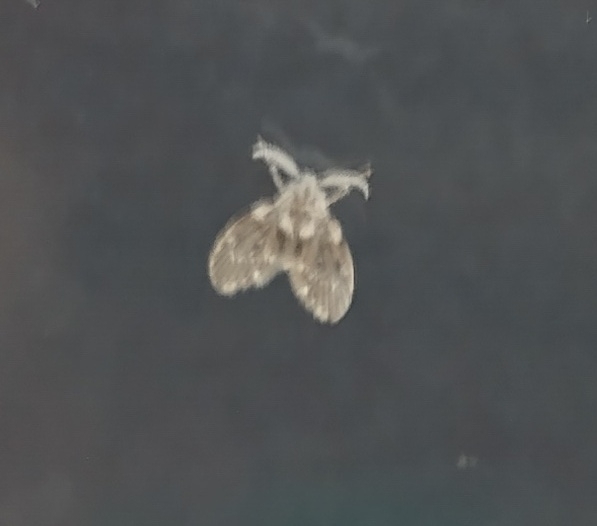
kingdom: Animalia
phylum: Arthropoda
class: Insecta
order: Diptera
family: Psychodidae
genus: Clogmia
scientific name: Clogmia albipunctatus
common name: White-spotted moth fly
